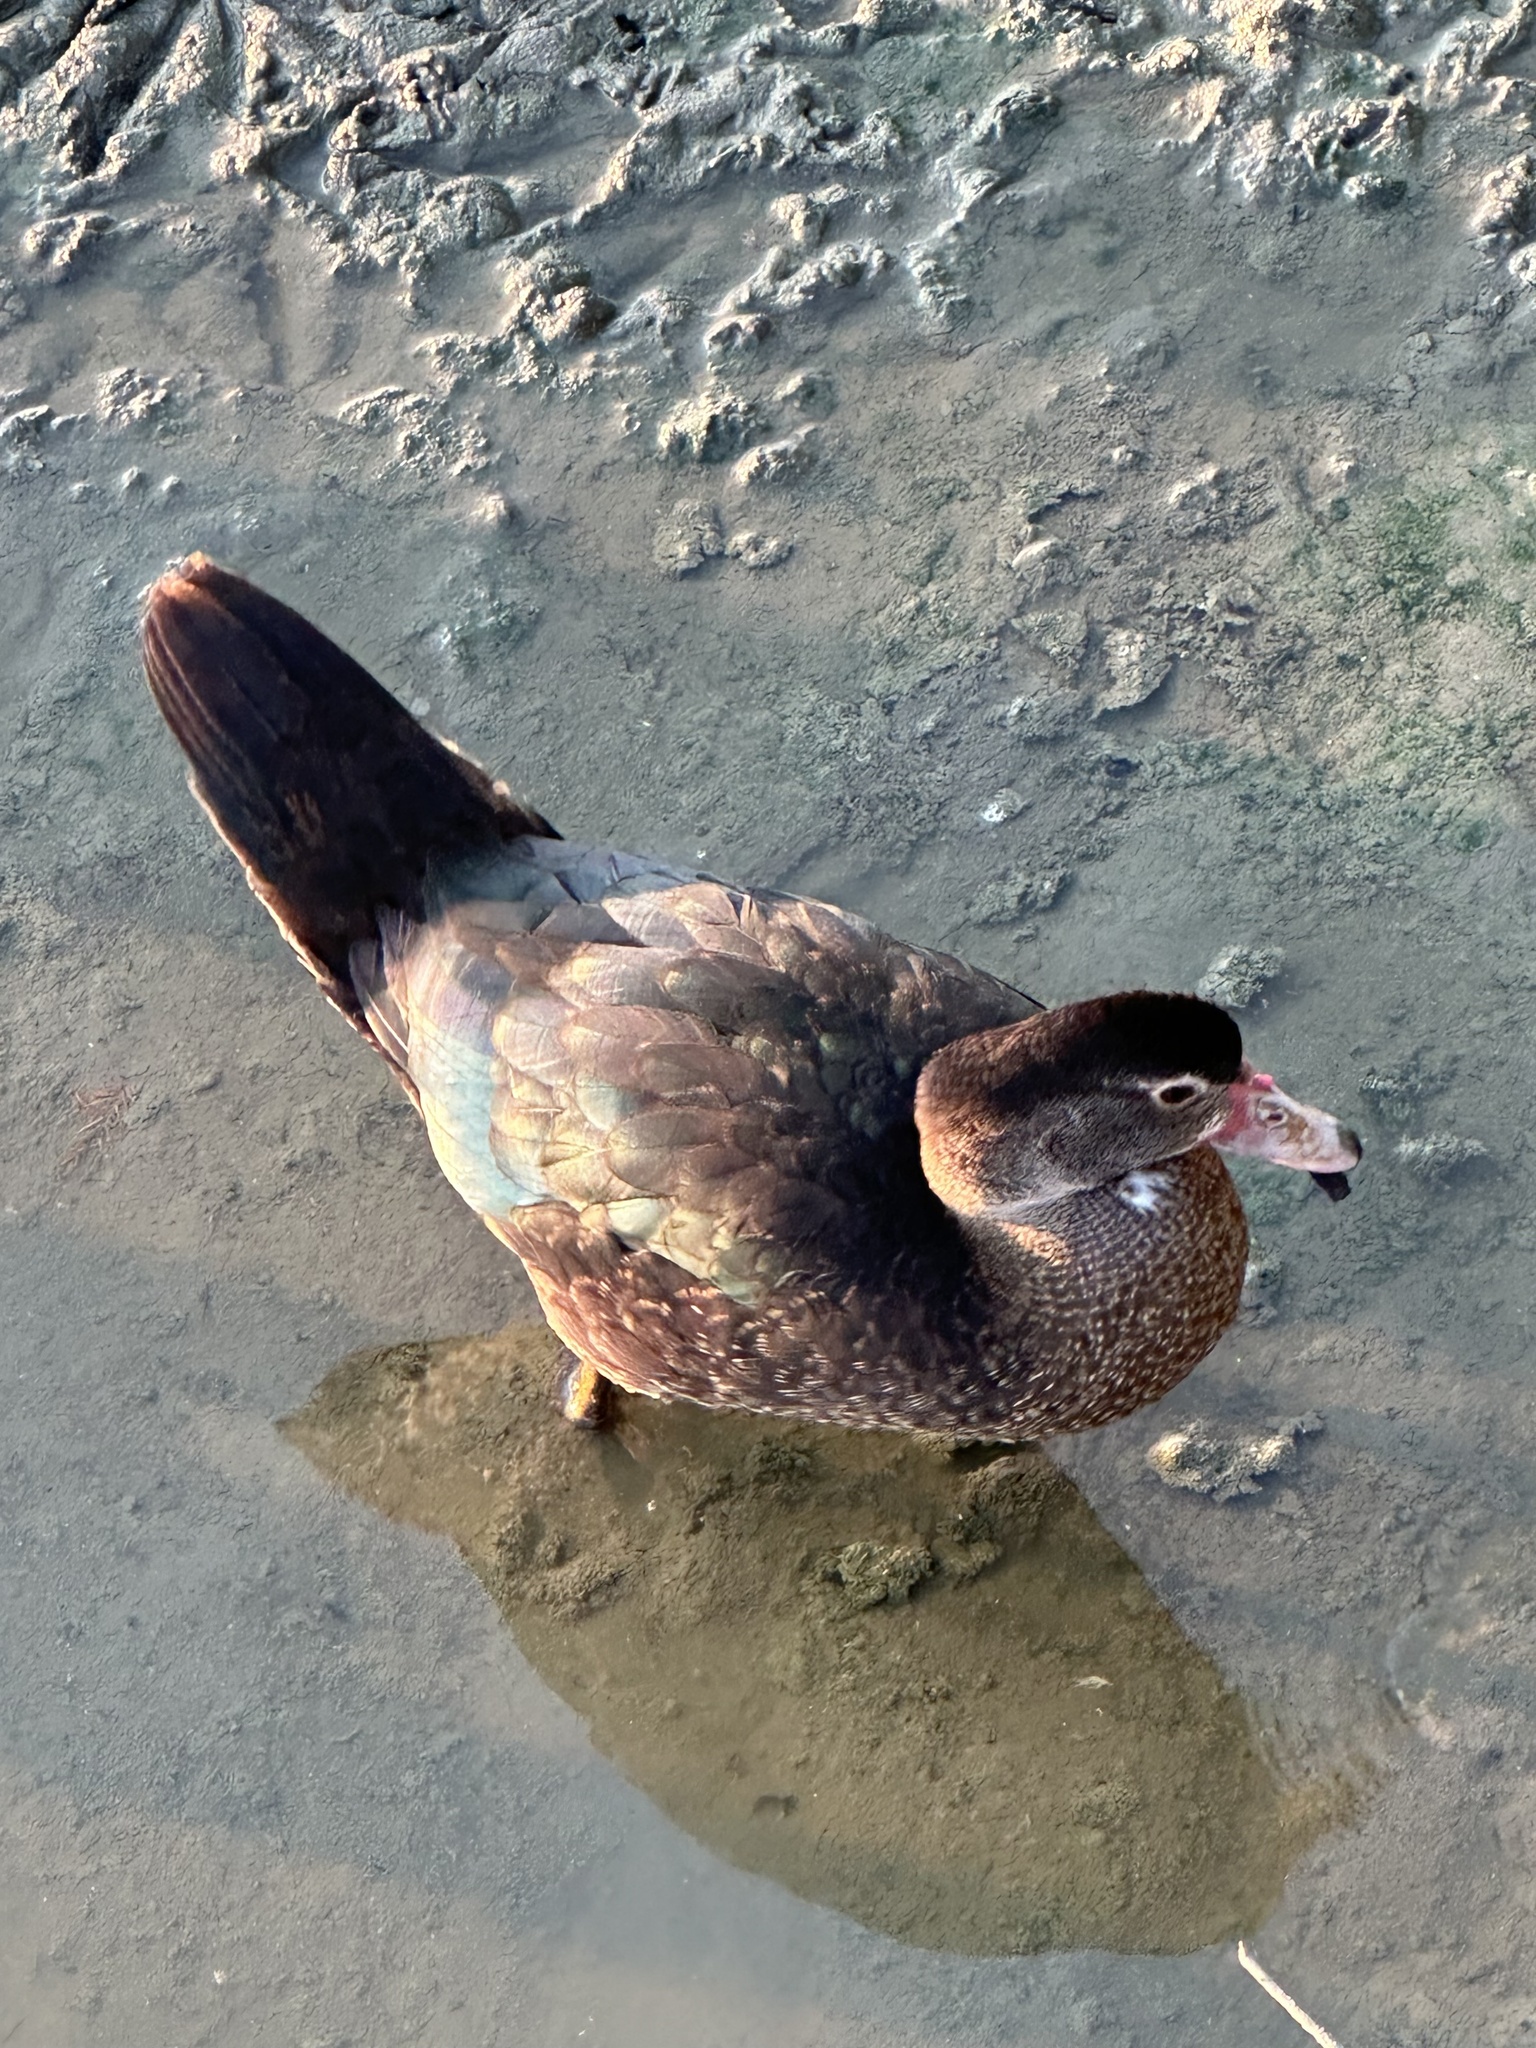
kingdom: Animalia
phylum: Chordata
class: Aves
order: Anseriformes
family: Anatidae
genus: Cairina
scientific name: Cairina moschata
